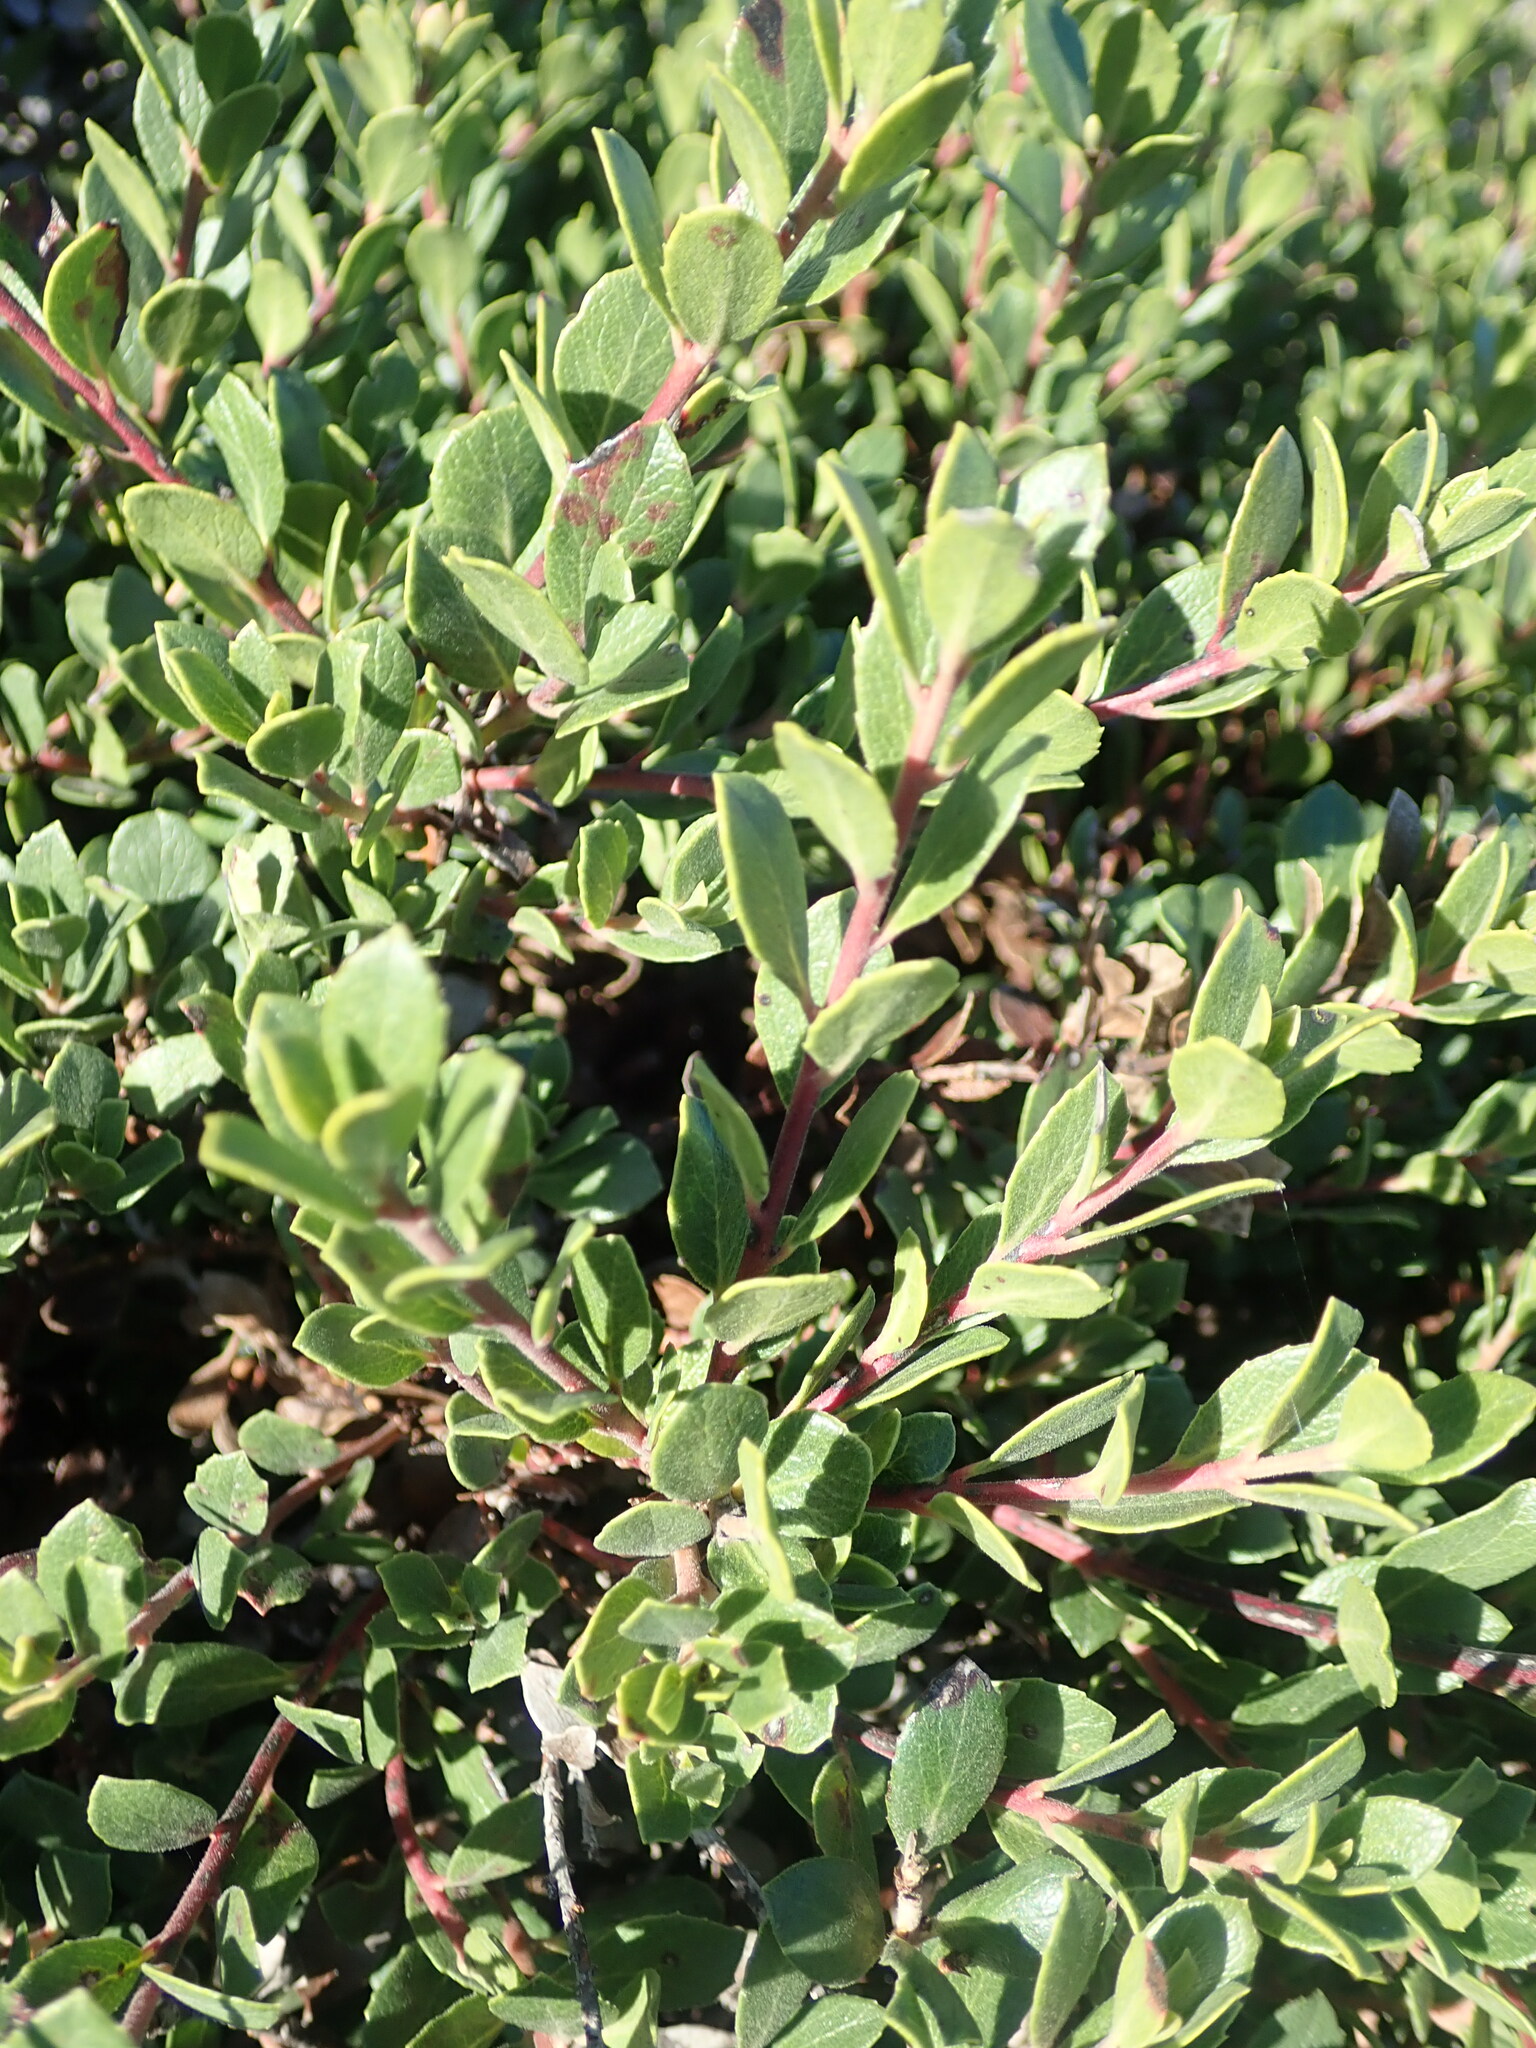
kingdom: Plantae
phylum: Tracheophyta
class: Magnoliopsida
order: Ericales
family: Ericaceae
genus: Arctostaphylos
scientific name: Arctostaphylos pacifica
